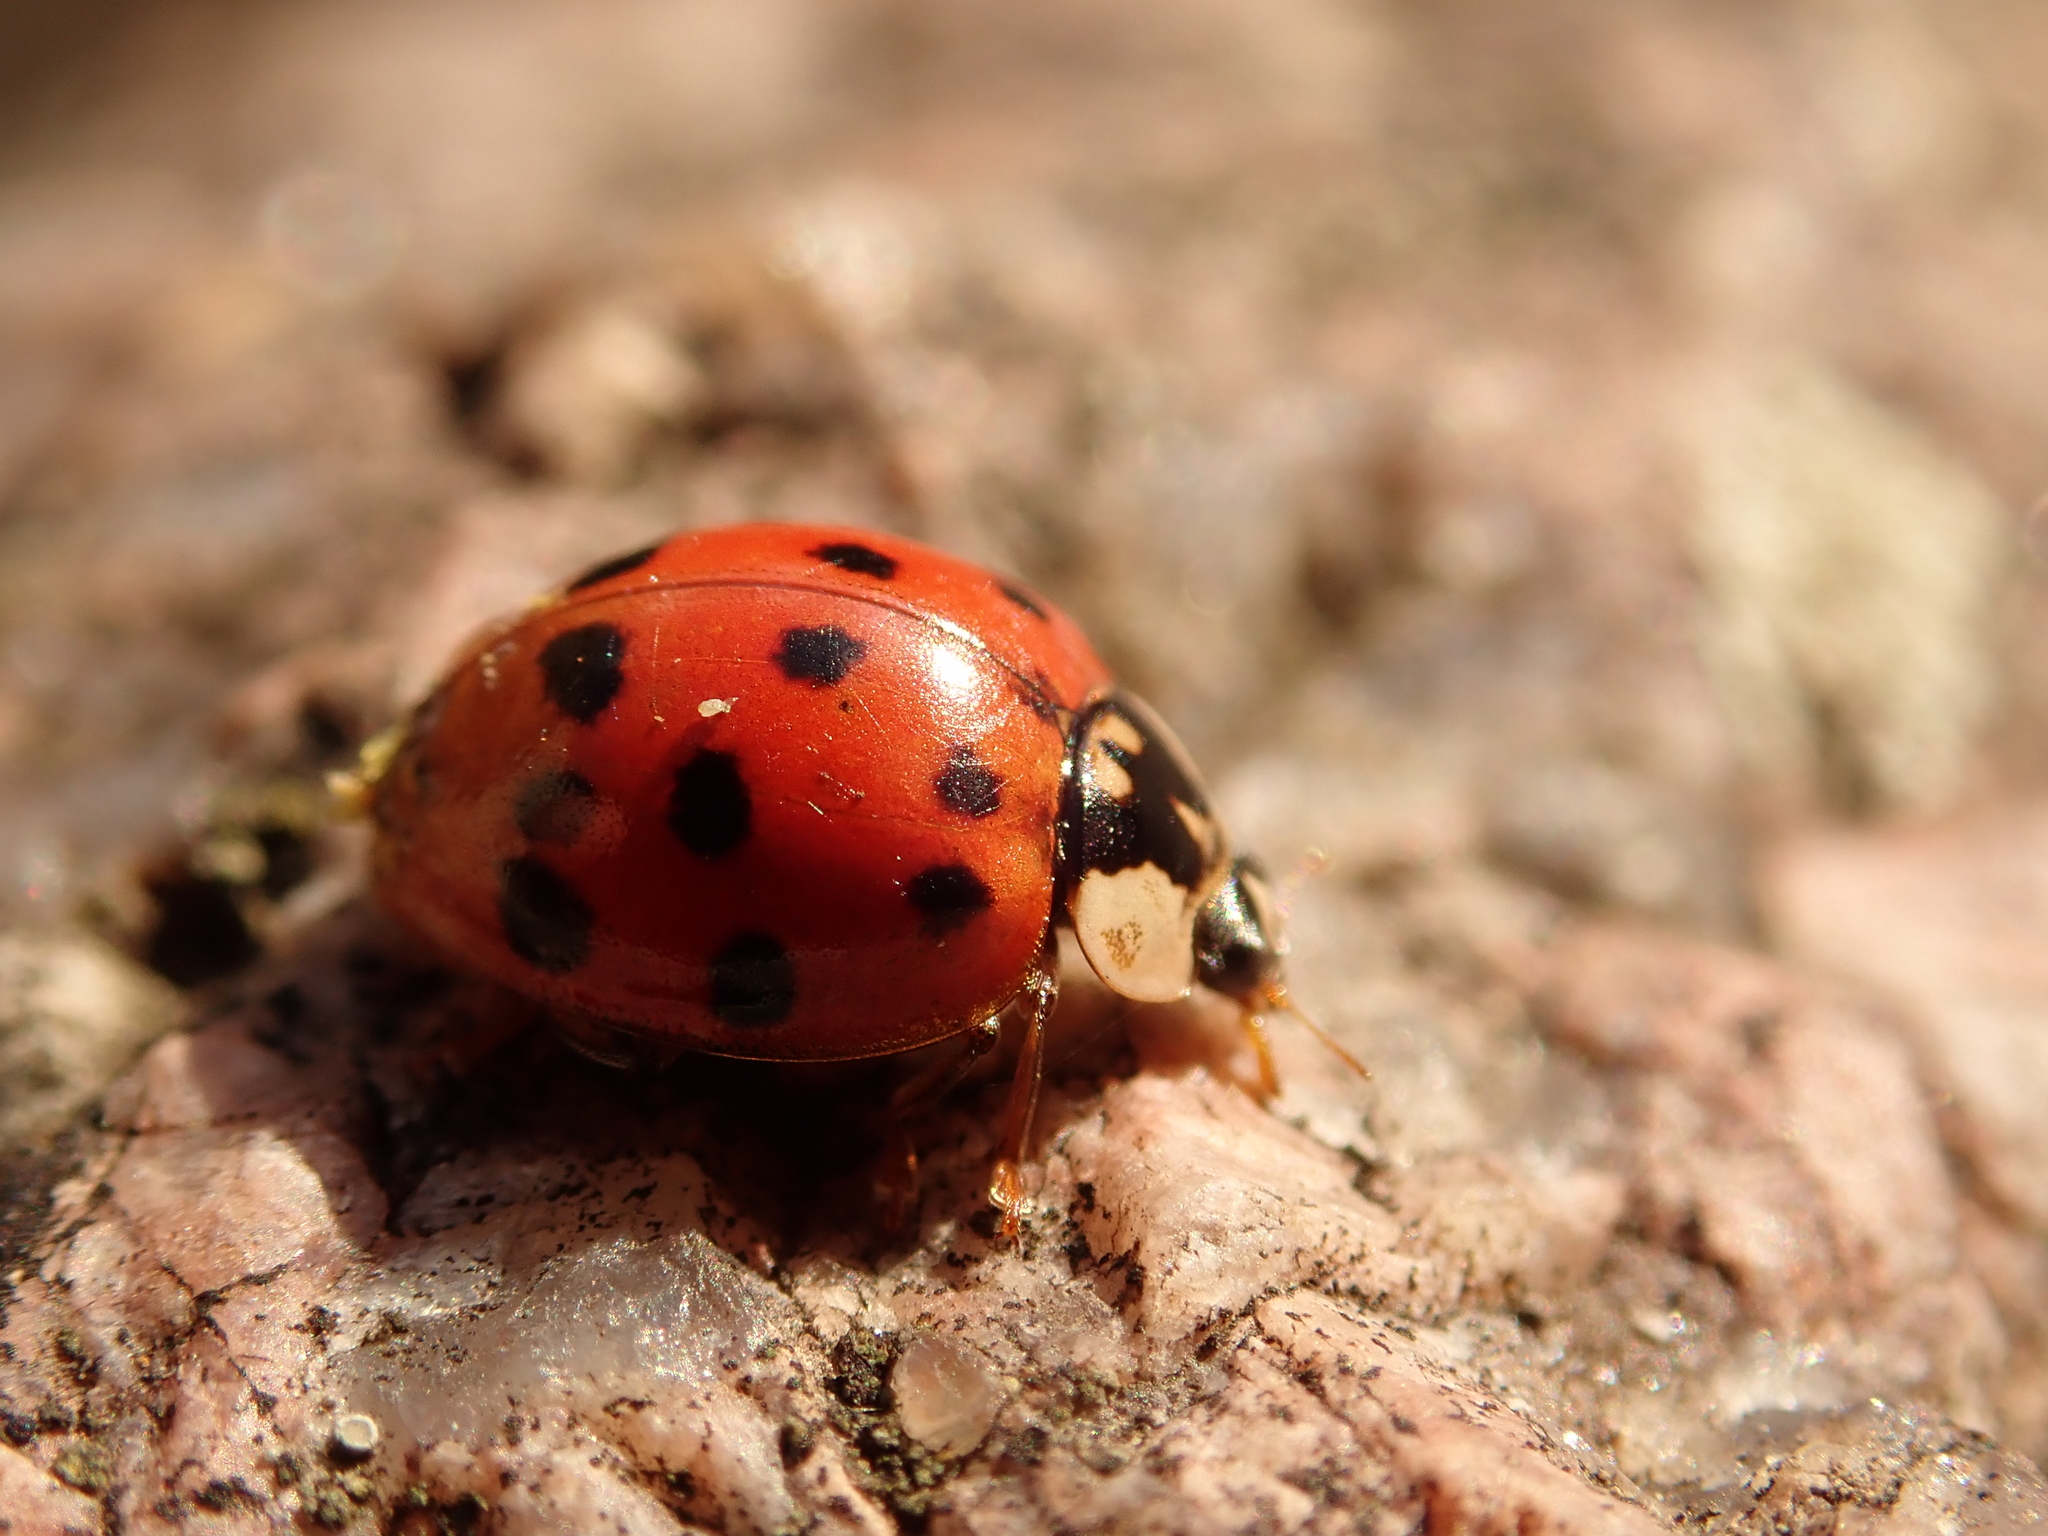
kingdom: Animalia
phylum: Arthropoda
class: Insecta
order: Coleoptera
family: Coccinellidae
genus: Harmonia
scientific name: Harmonia axyridis
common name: Harlequin ladybird
